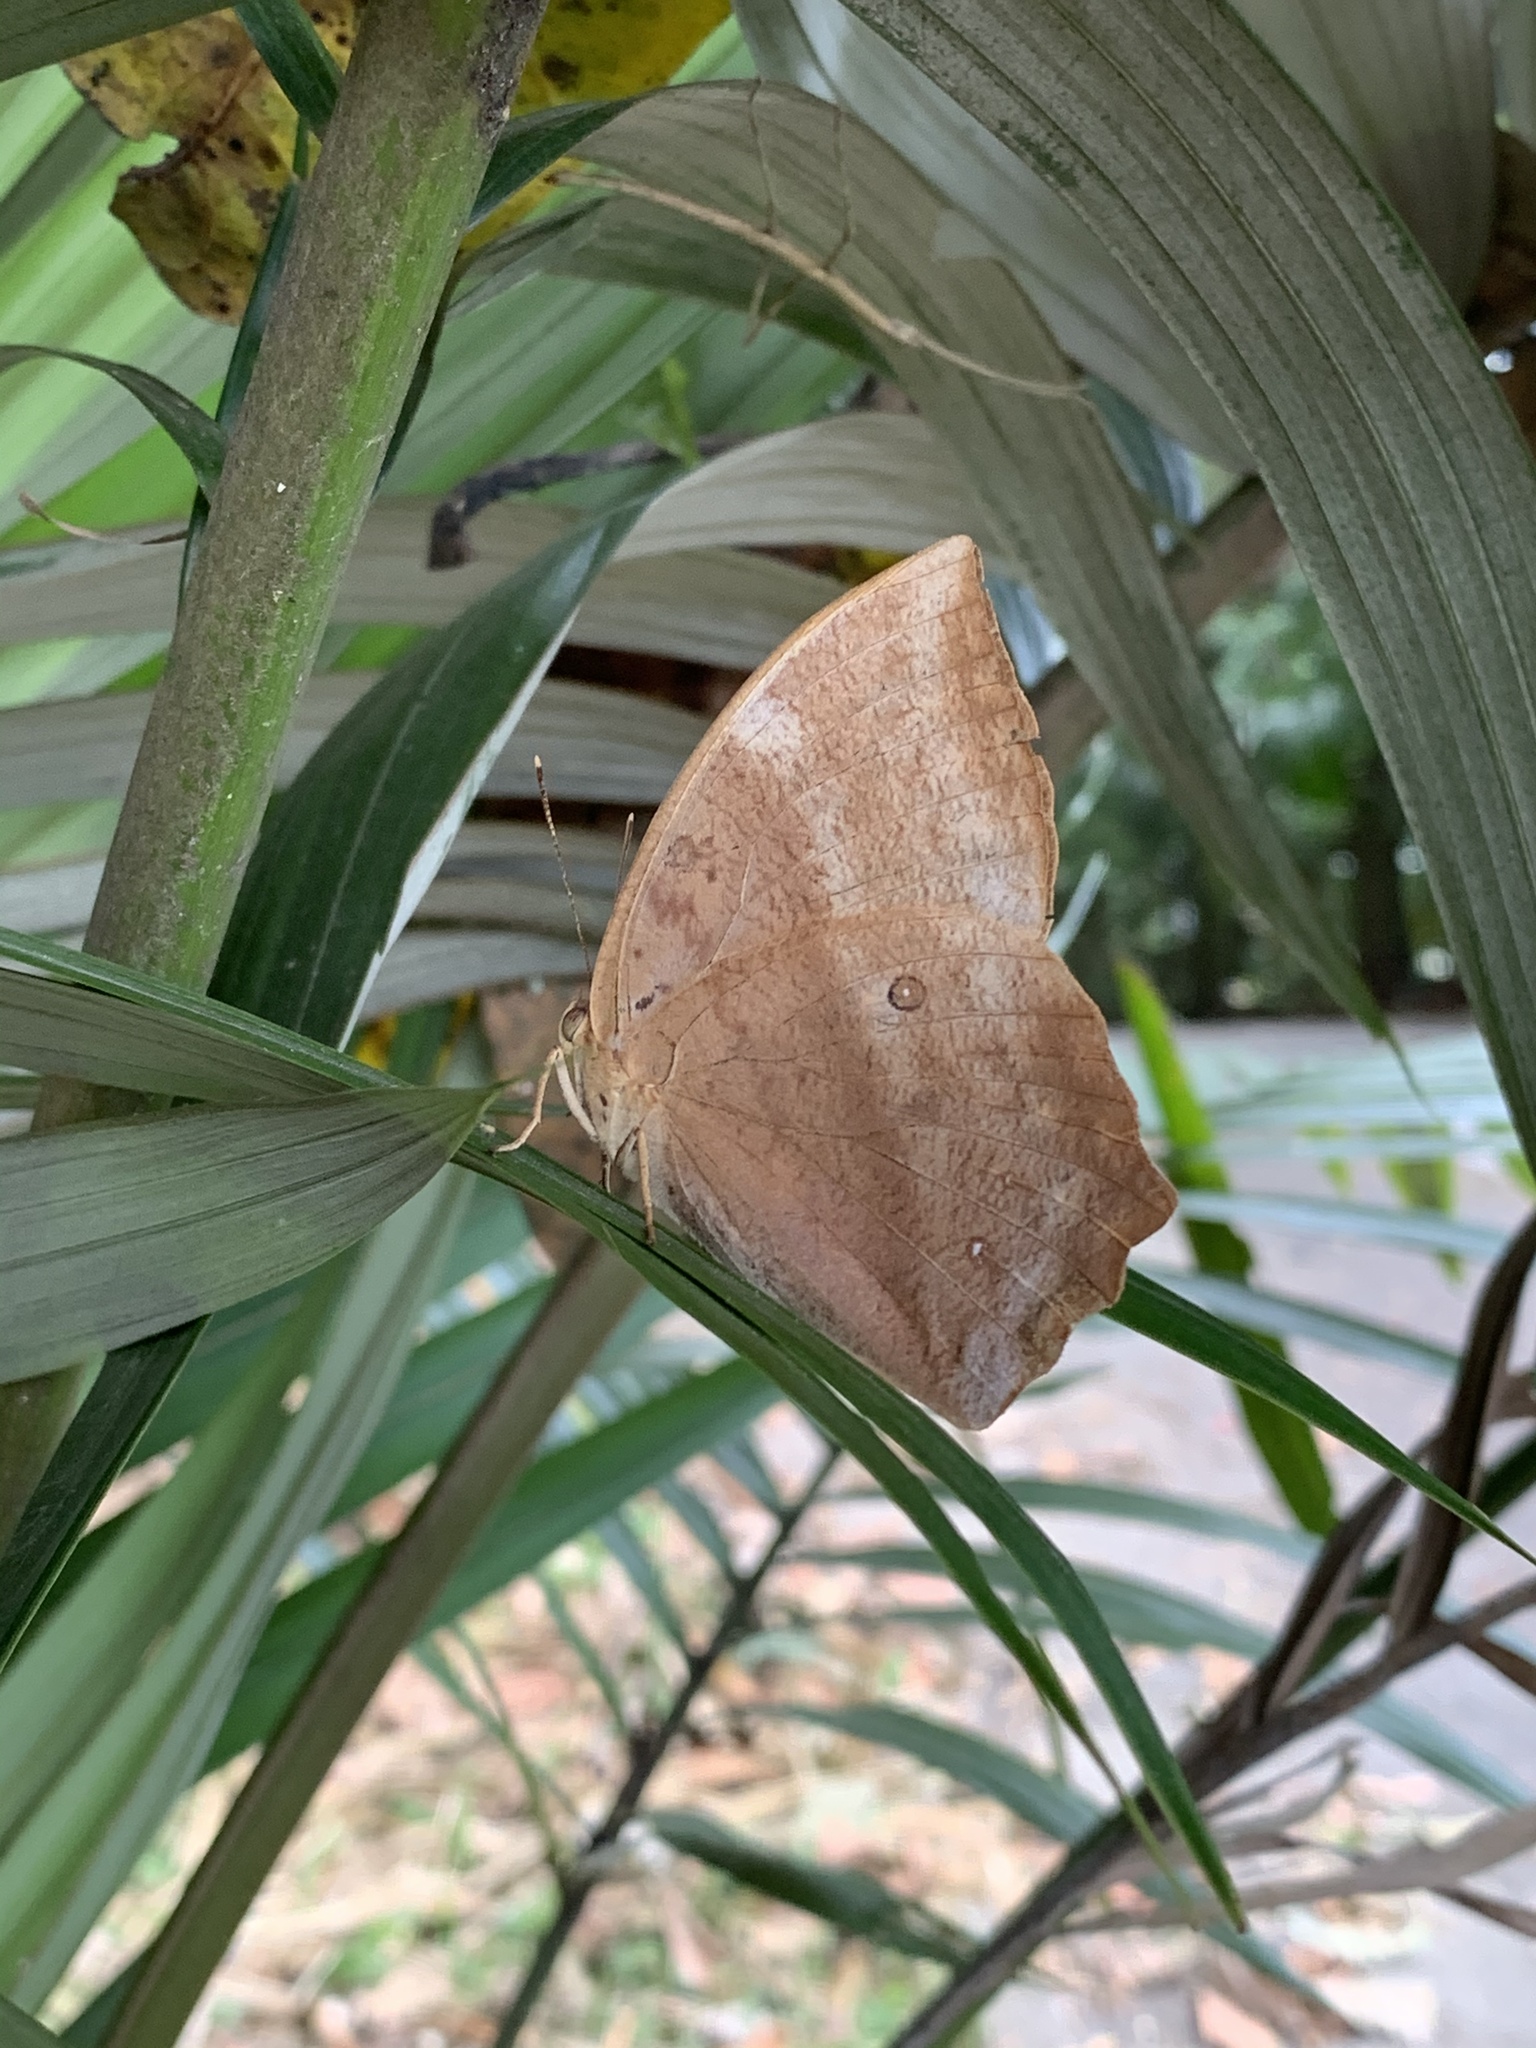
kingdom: Animalia
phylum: Arthropoda
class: Insecta
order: Lepidoptera
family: Nymphalidae
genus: Discophora
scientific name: Discophora sondaica
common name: Common duffer
